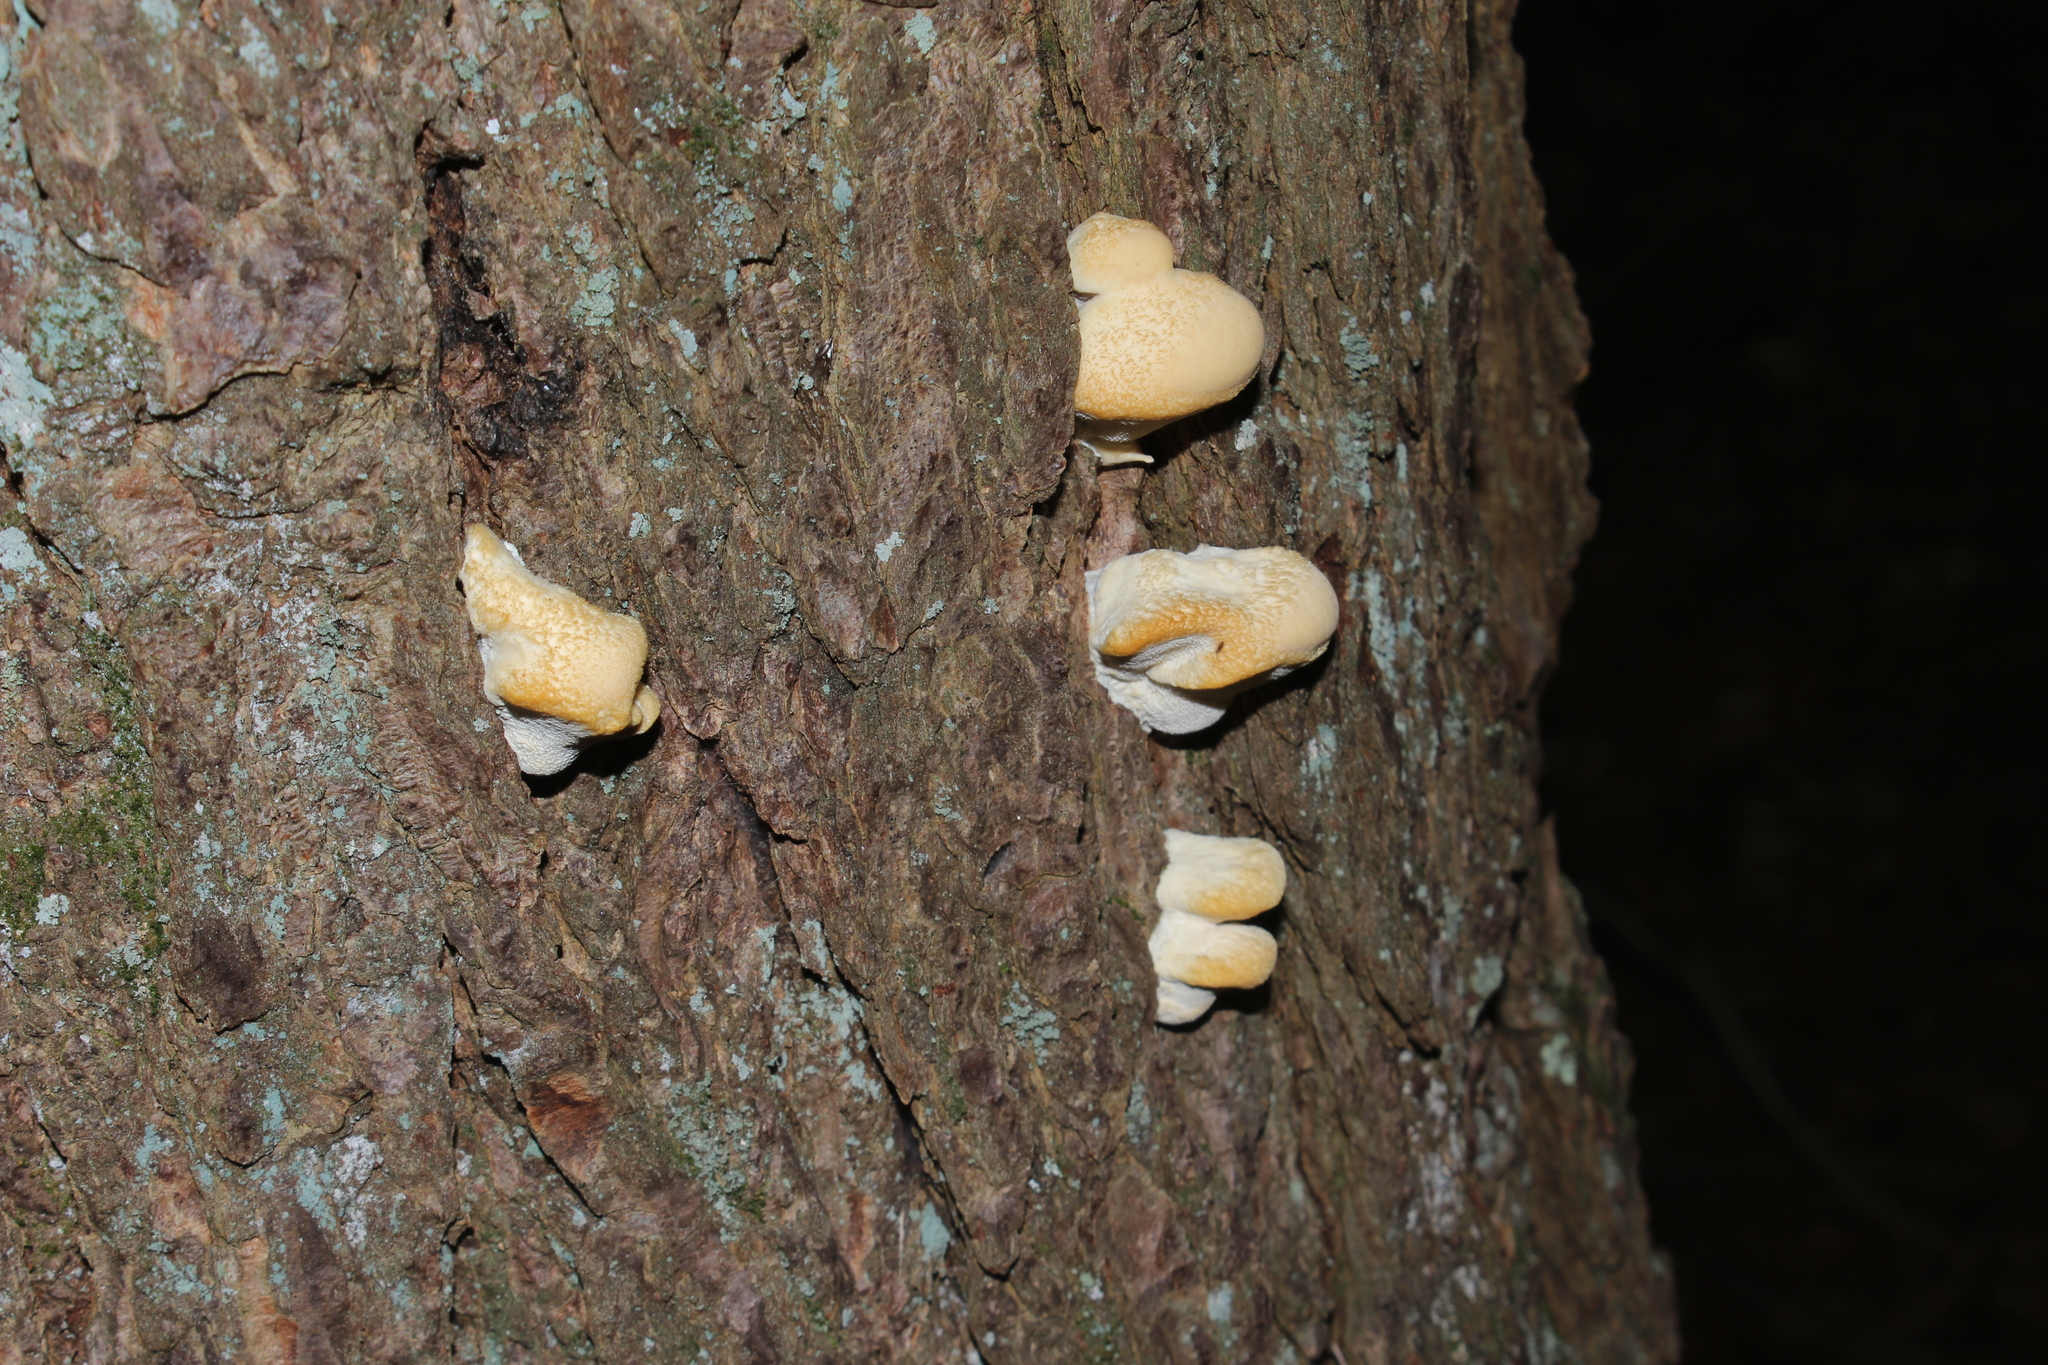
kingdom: Fungi
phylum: Basidiomycota
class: Agaricomycetes
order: Polyporales
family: Fomitopsidaceae
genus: Climacocystis
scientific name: Climacocystis borealis
